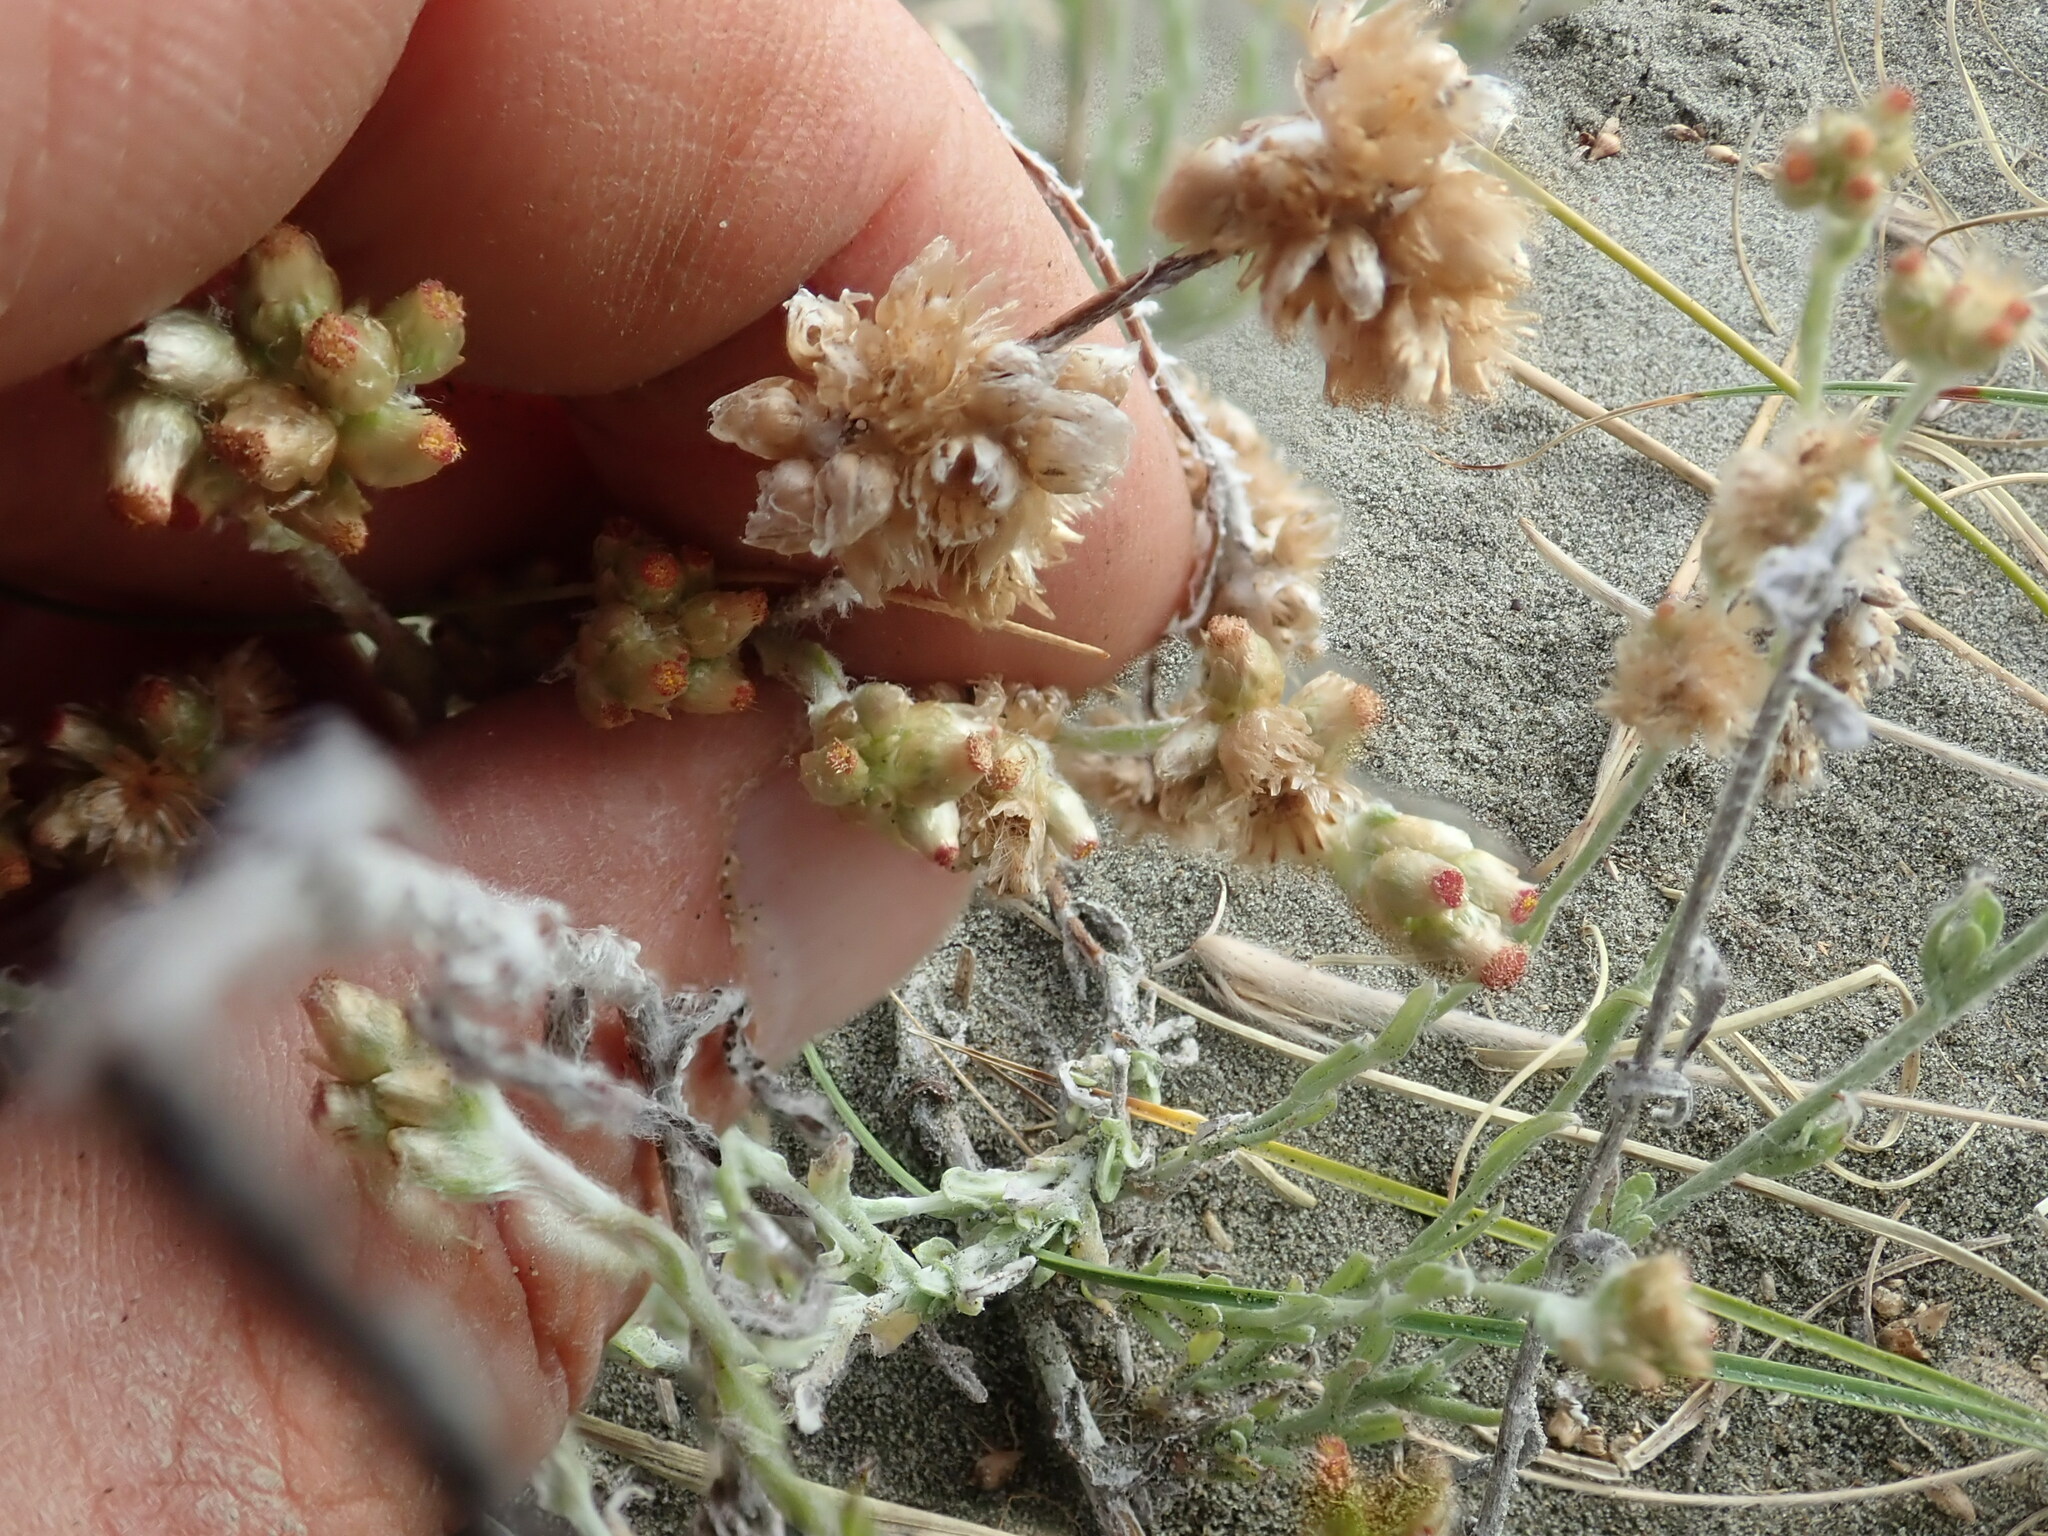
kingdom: Plantae
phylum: Tracheophyta
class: Magnoliopsida
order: Asterales
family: Asteraceae
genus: Helichrysum
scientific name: Helichrysum luteoalbum
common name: Daisy
